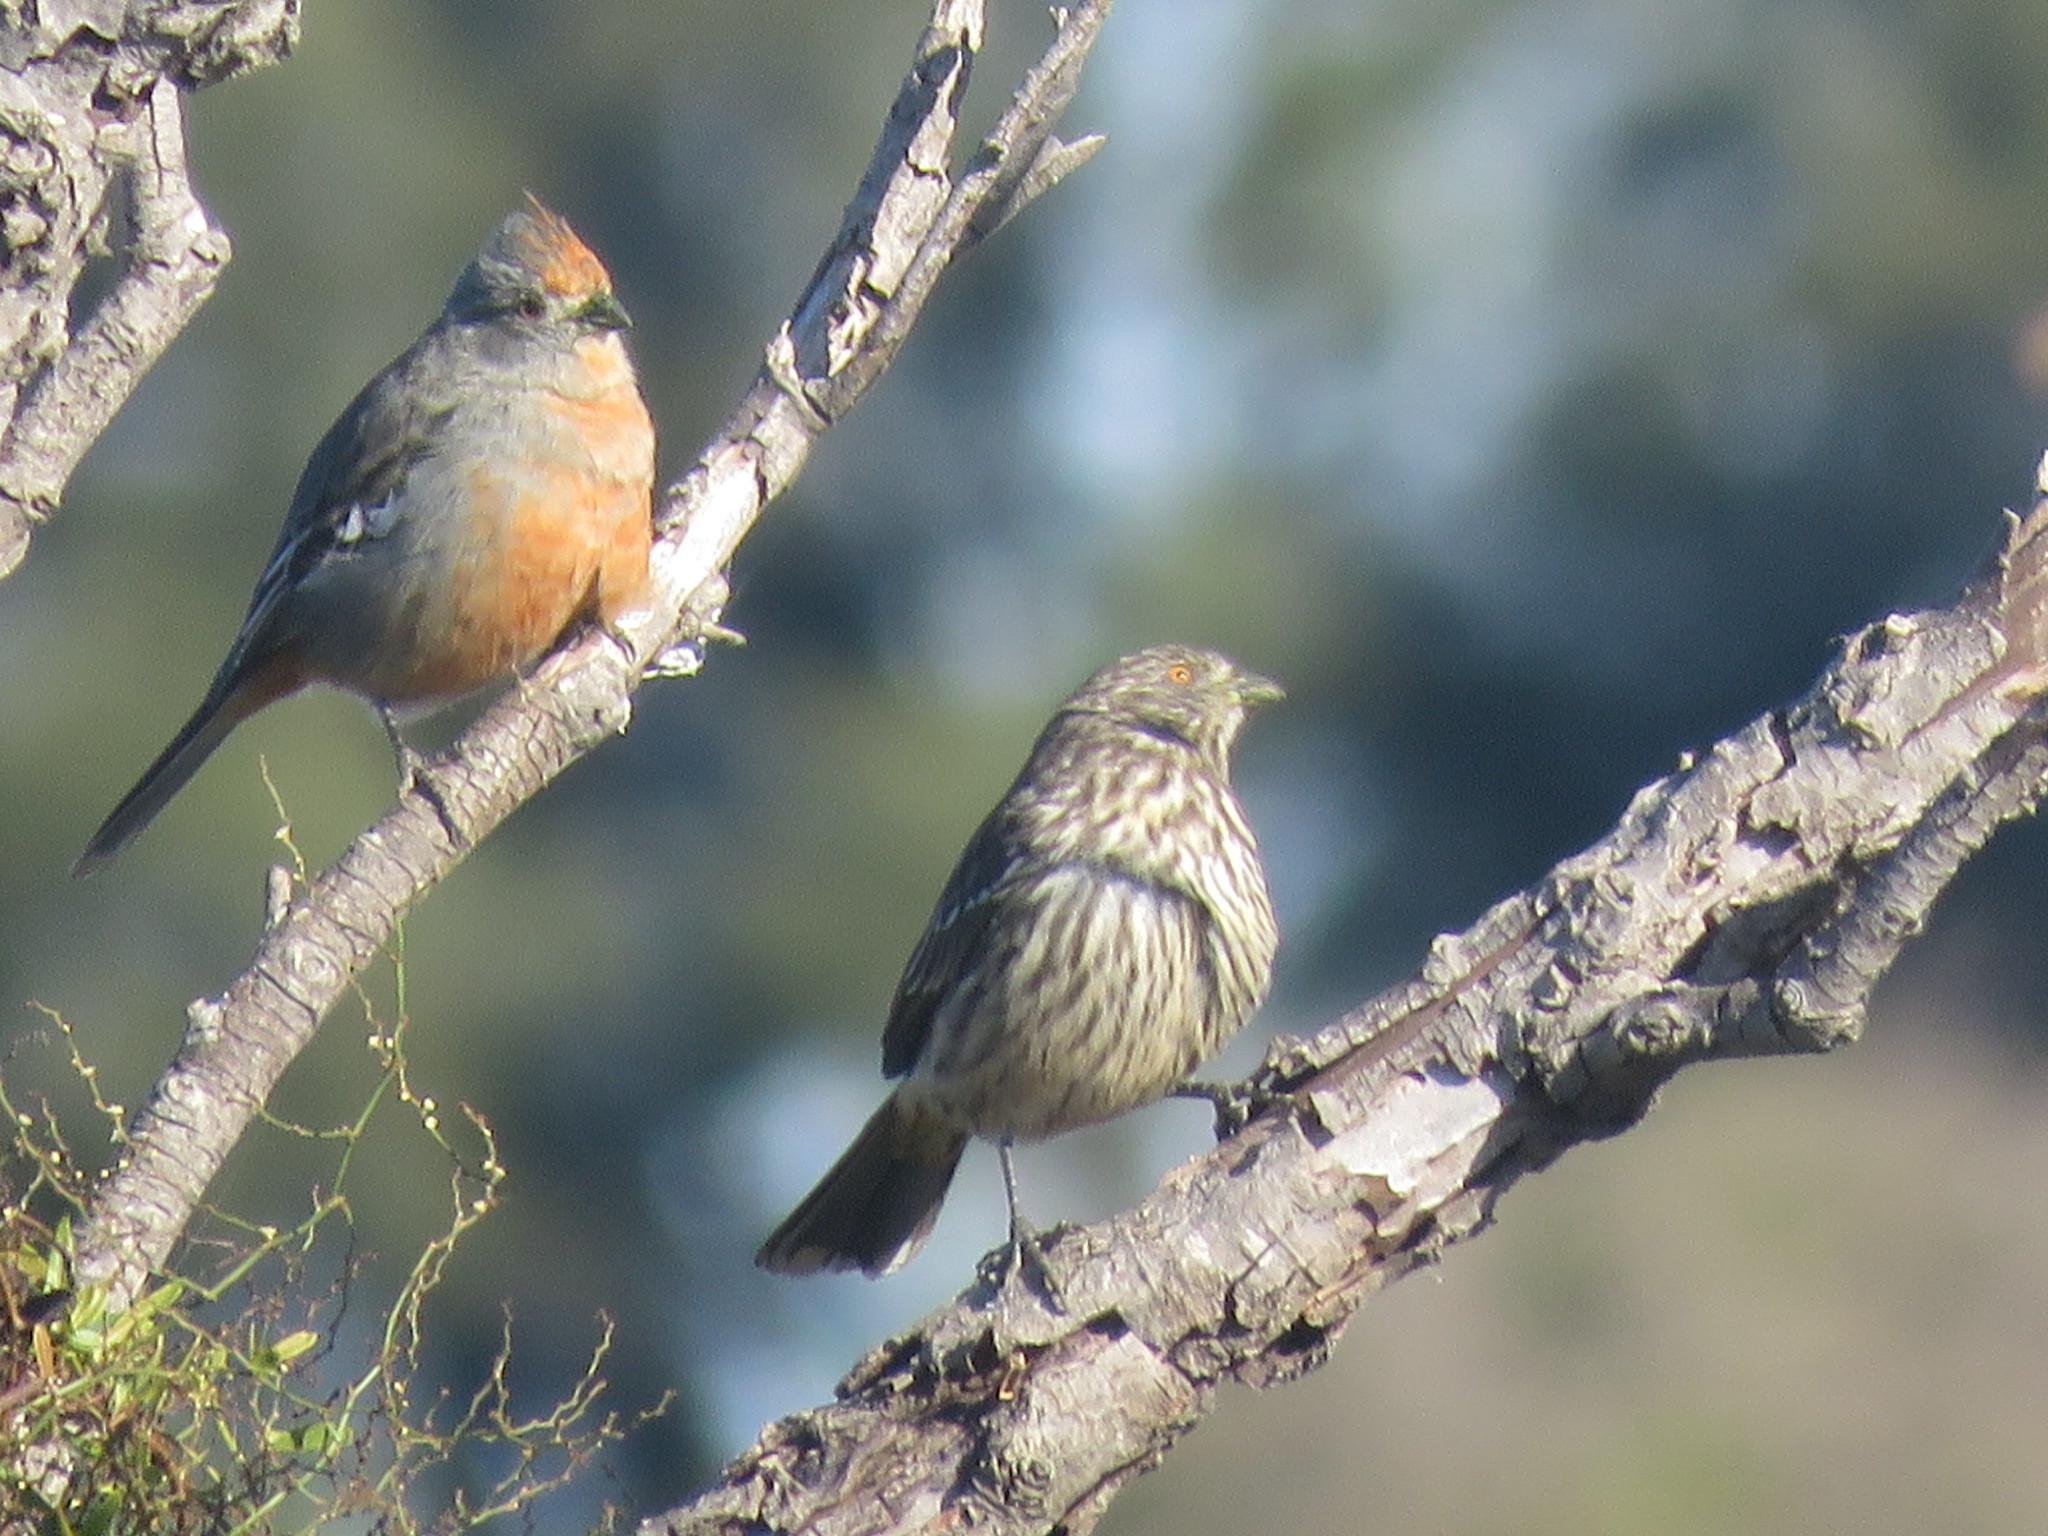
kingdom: Animalia
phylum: Chordata
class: Aves
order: Passeriformes
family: Cotingidae
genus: Phytotoma
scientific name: Phytotoma rutila
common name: White-tipped plantcutter
